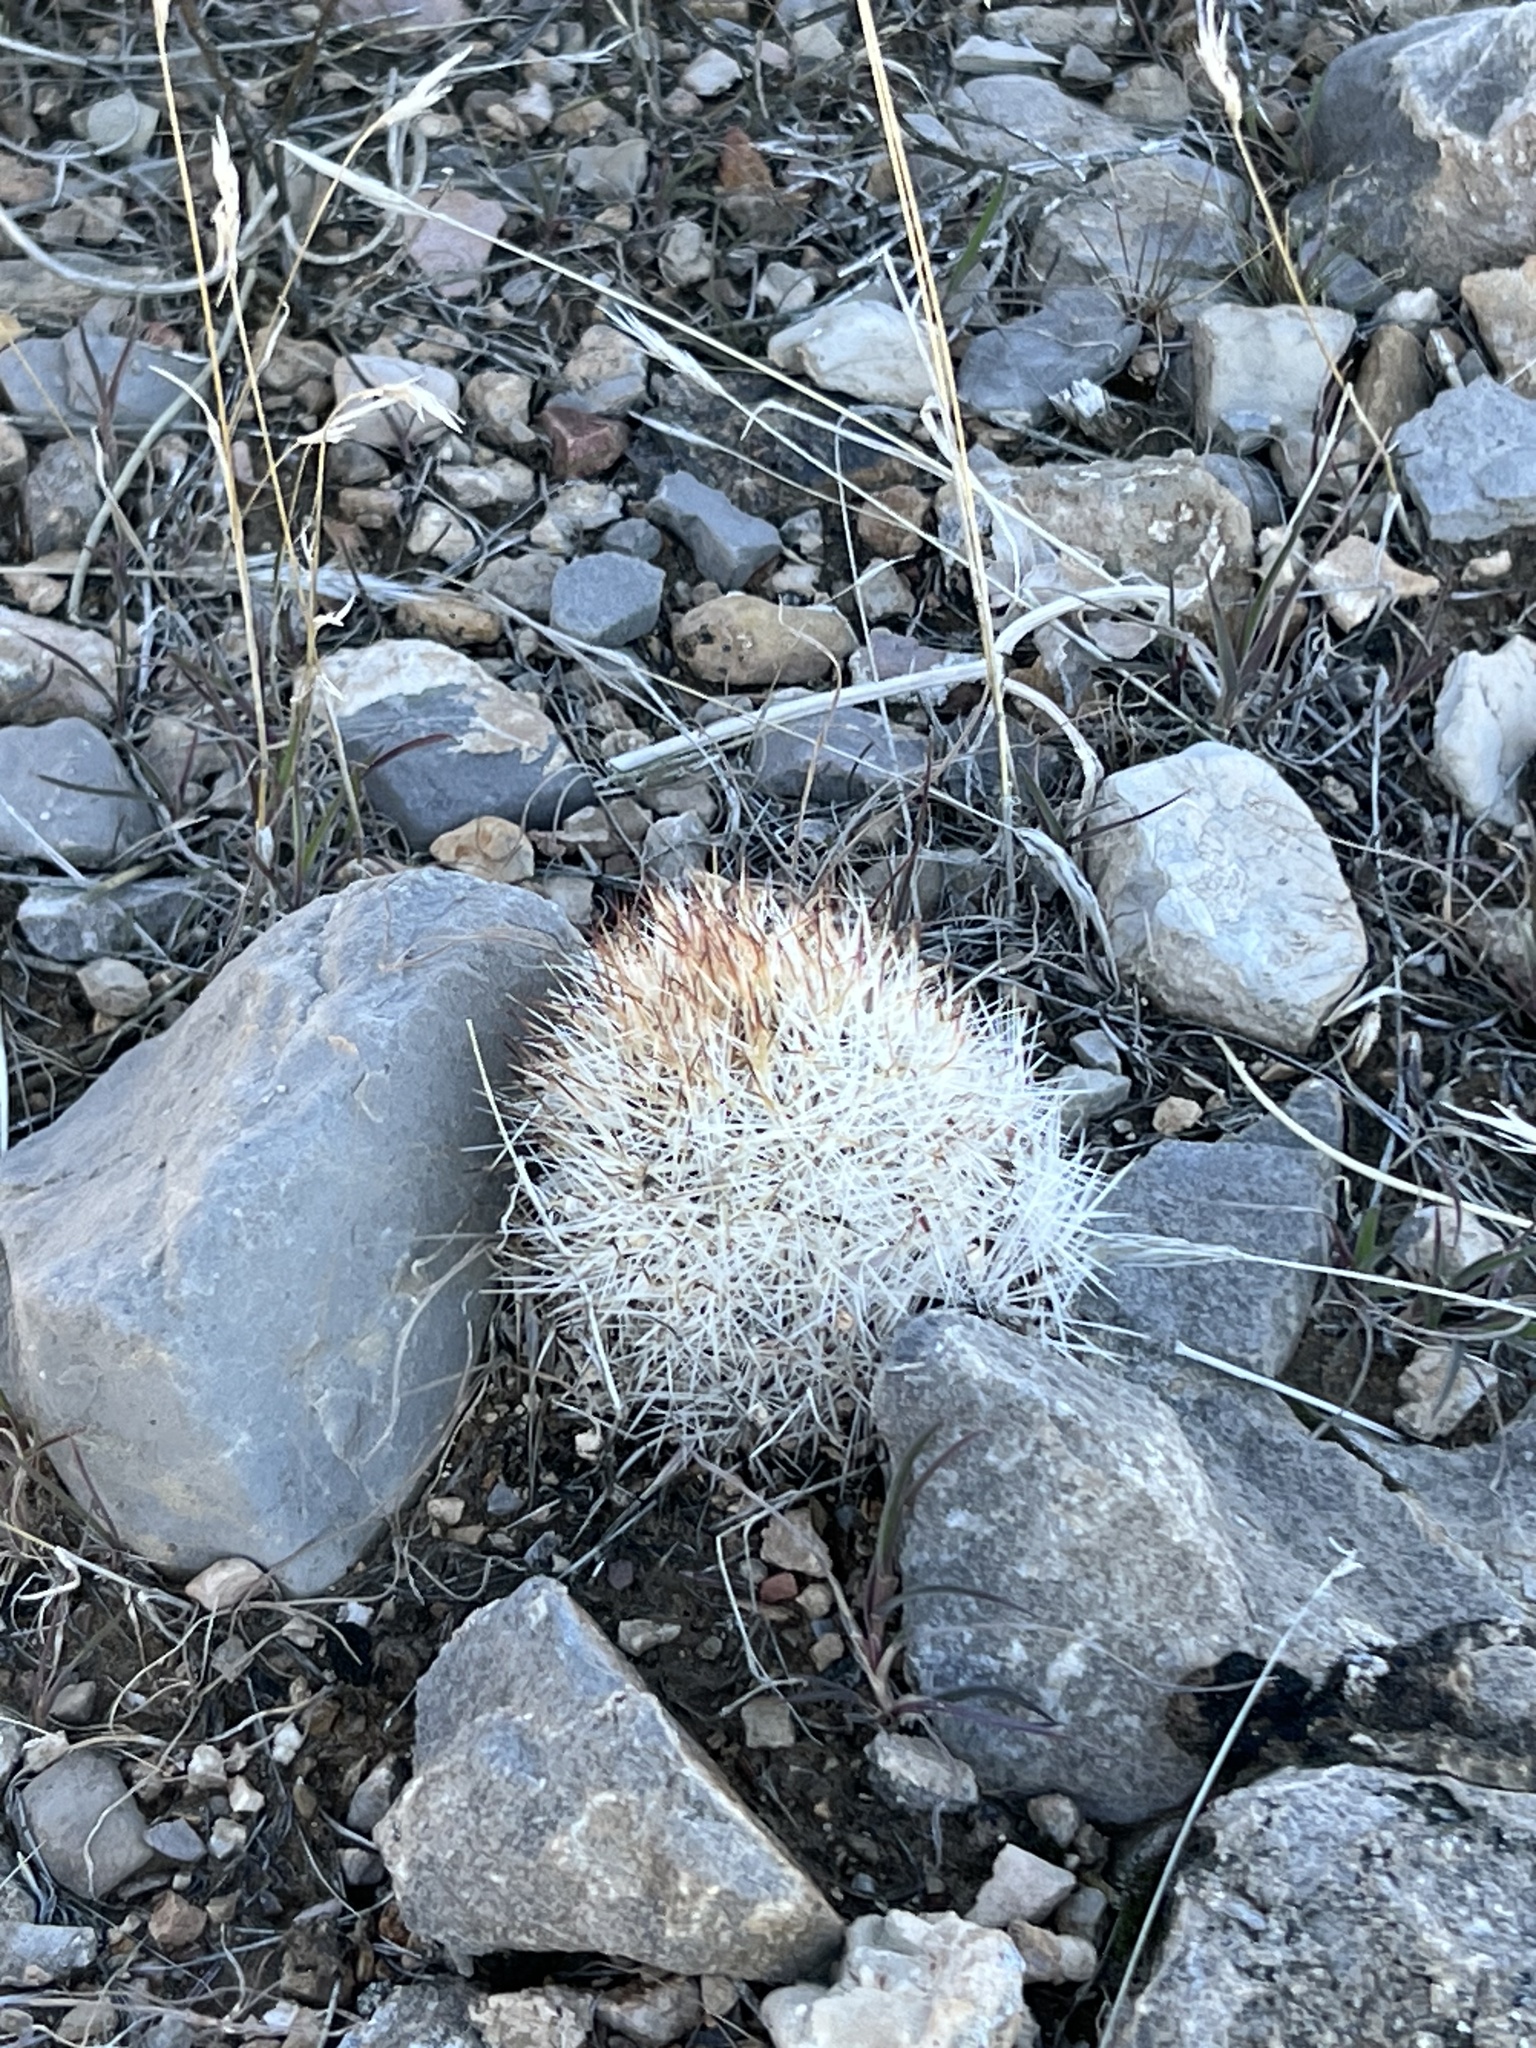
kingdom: Plantae
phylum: Tracheophyta
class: Magnoliopsida
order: Caryophyllales
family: Cactaceae
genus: Pelecyphora
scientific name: Pelecyphora dasyacantha
